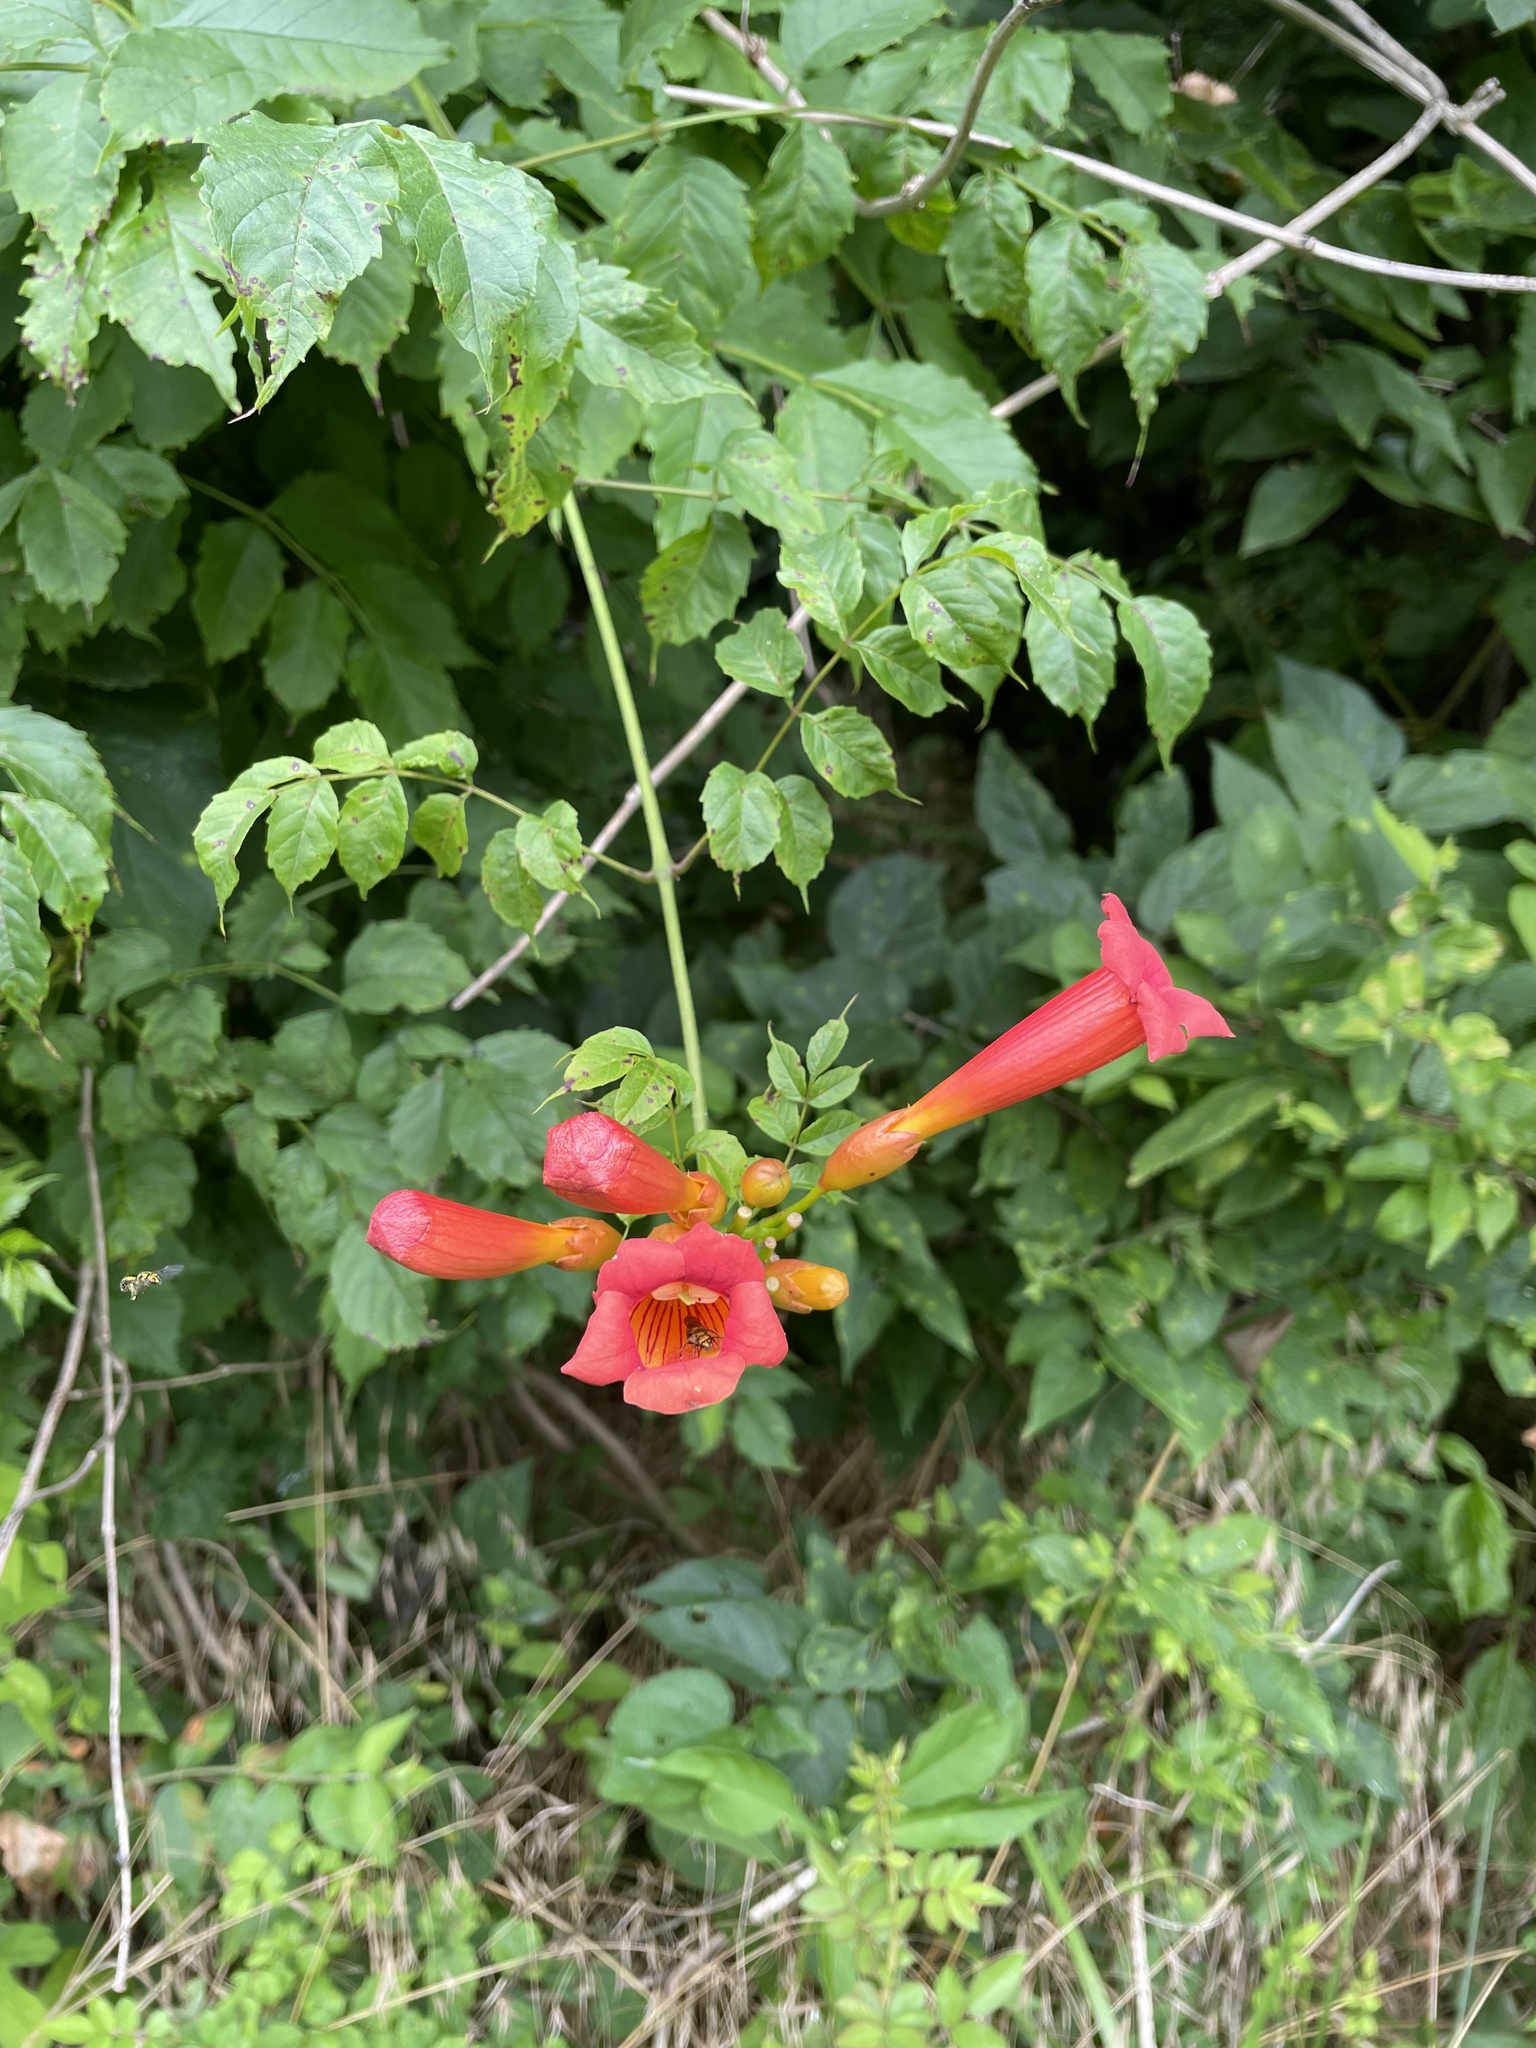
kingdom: Plantae
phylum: Tracheophyta
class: Magnoliopsida
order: Lamiales
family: Bignoniaceae
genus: Campsis
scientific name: Campsis radicans
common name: Trumpet-creeper
